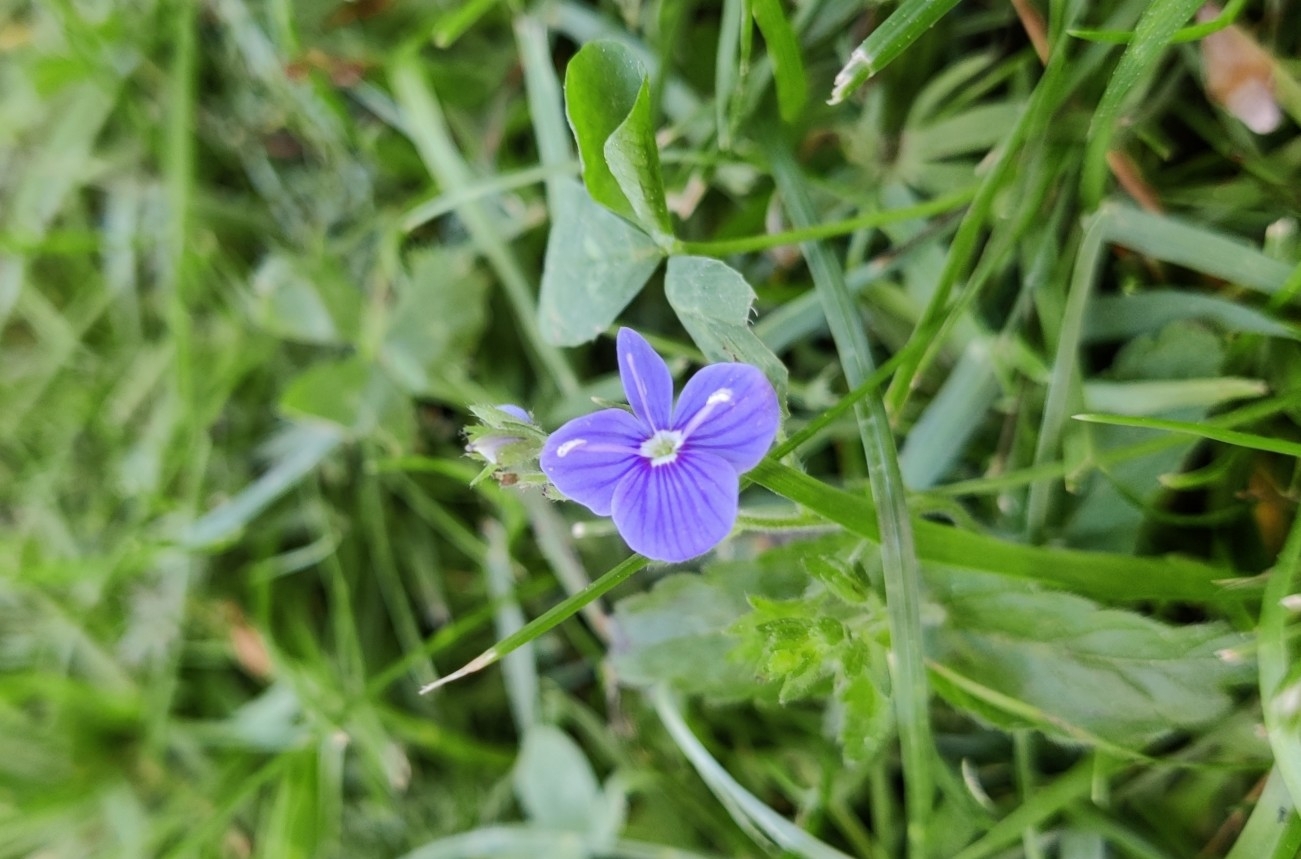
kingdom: Plantae
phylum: Tracheophyta
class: Magnoliopsida
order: Lamiales
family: Plantaginaceae
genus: Veronica
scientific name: Veronica chamaedrys
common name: Germander speedwell
